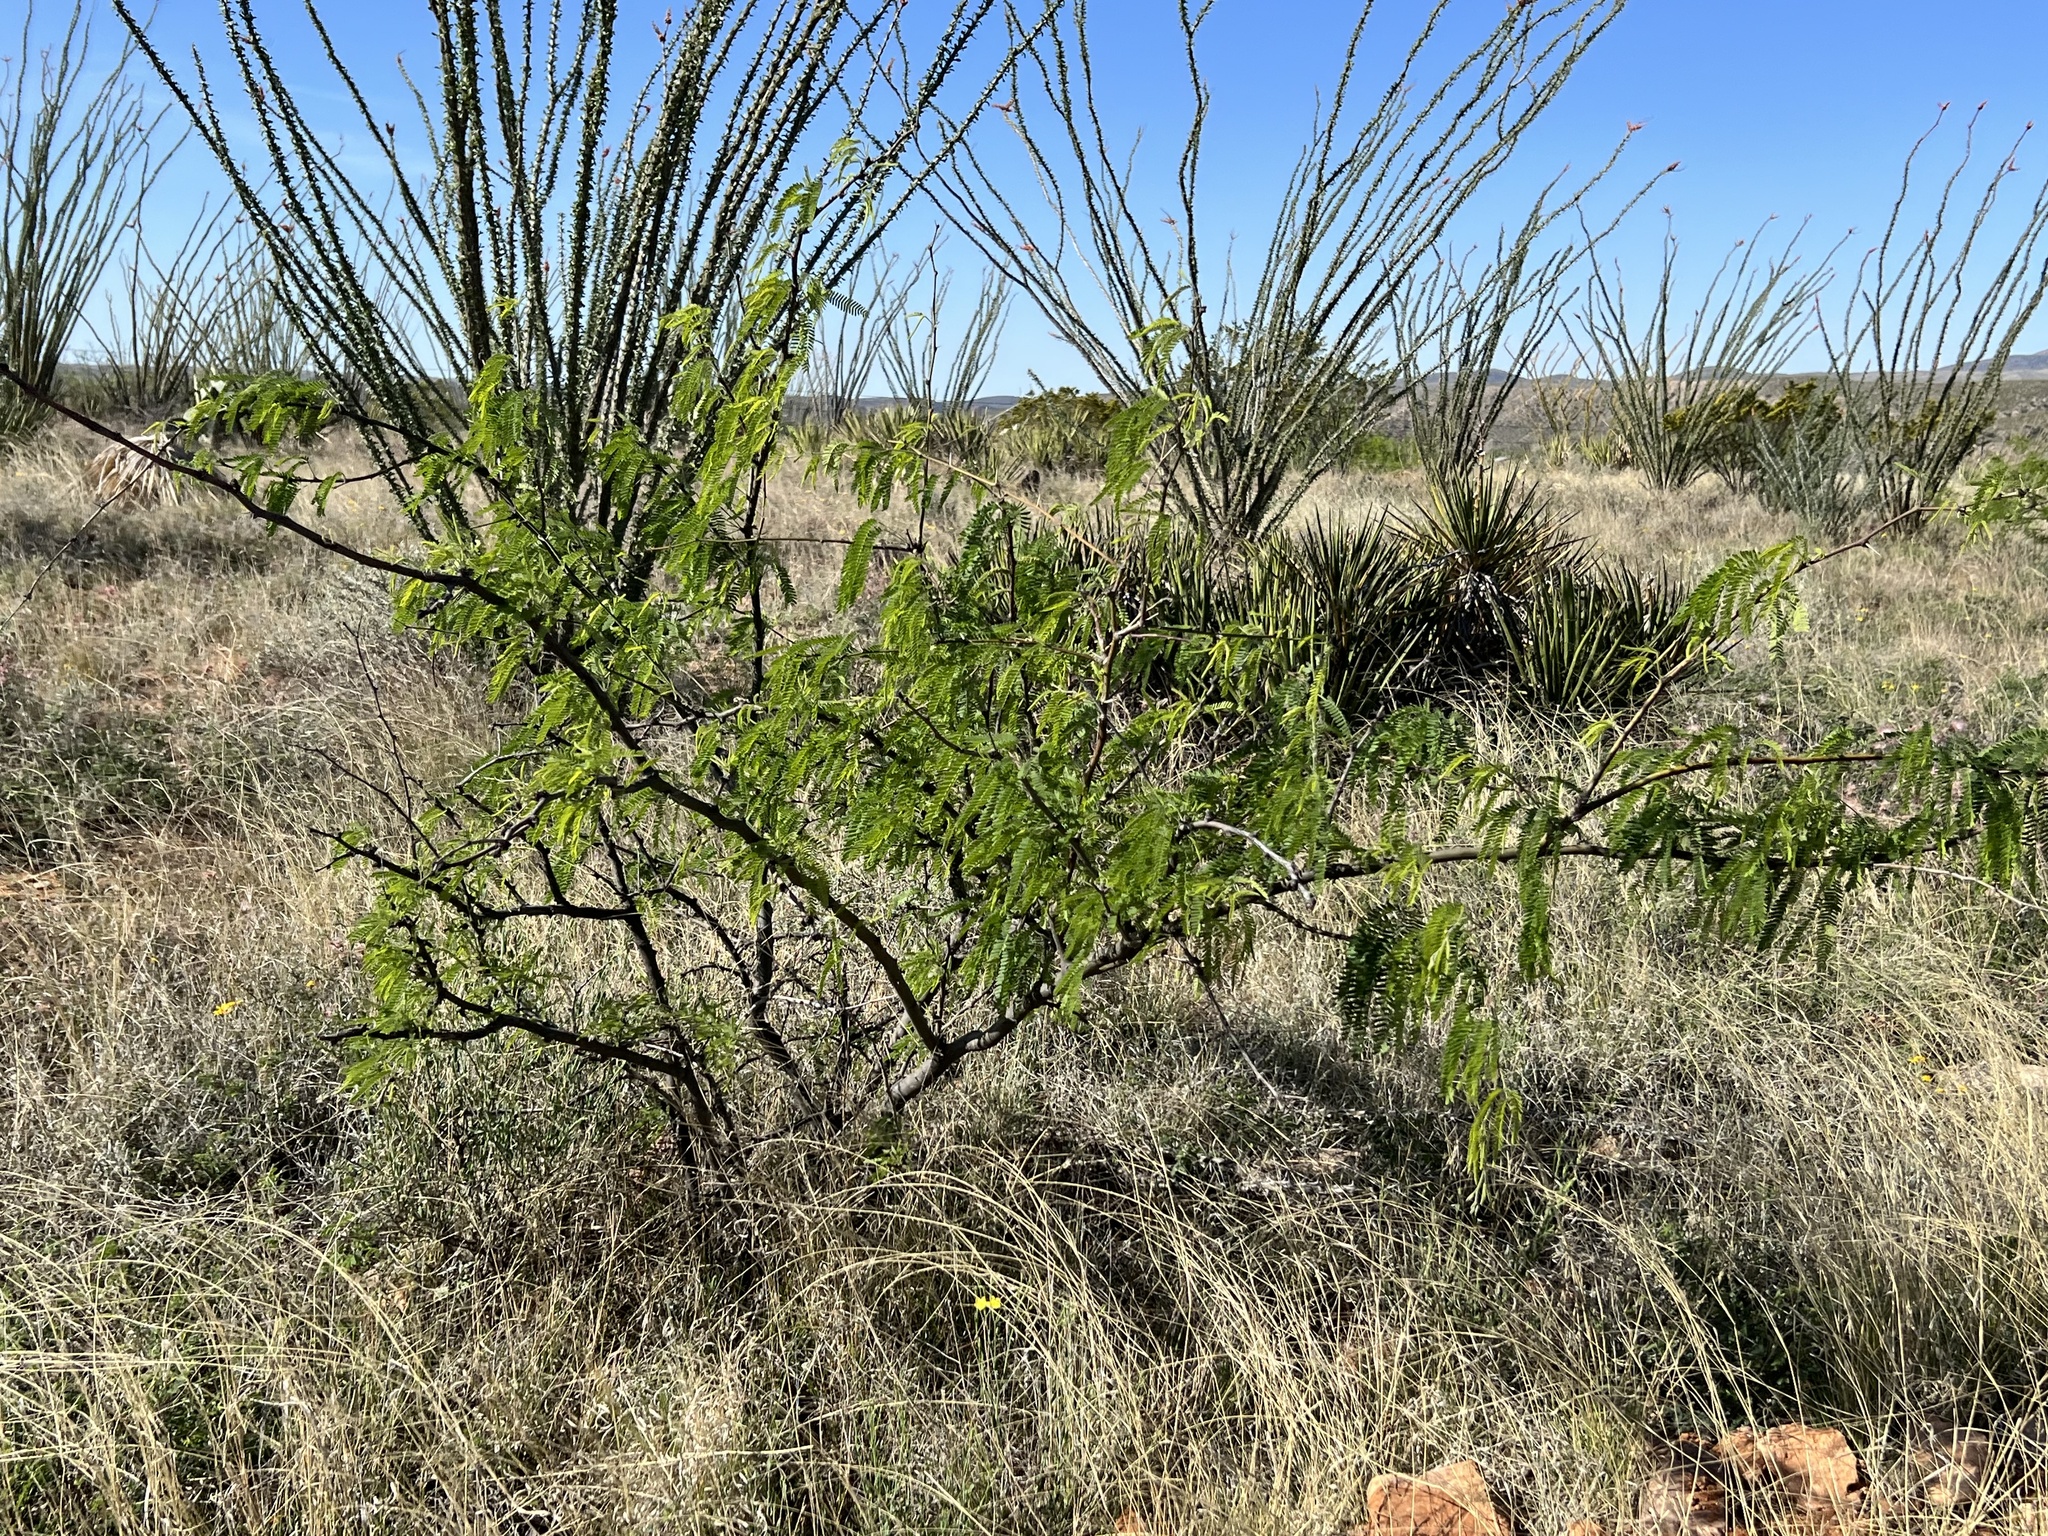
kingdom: Plantae
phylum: Tracheophyta
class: Magnoliopsida
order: Fabales
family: Fabaceae
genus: Prosopis
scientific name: Prosopis velutina
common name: Velvet mesquite
